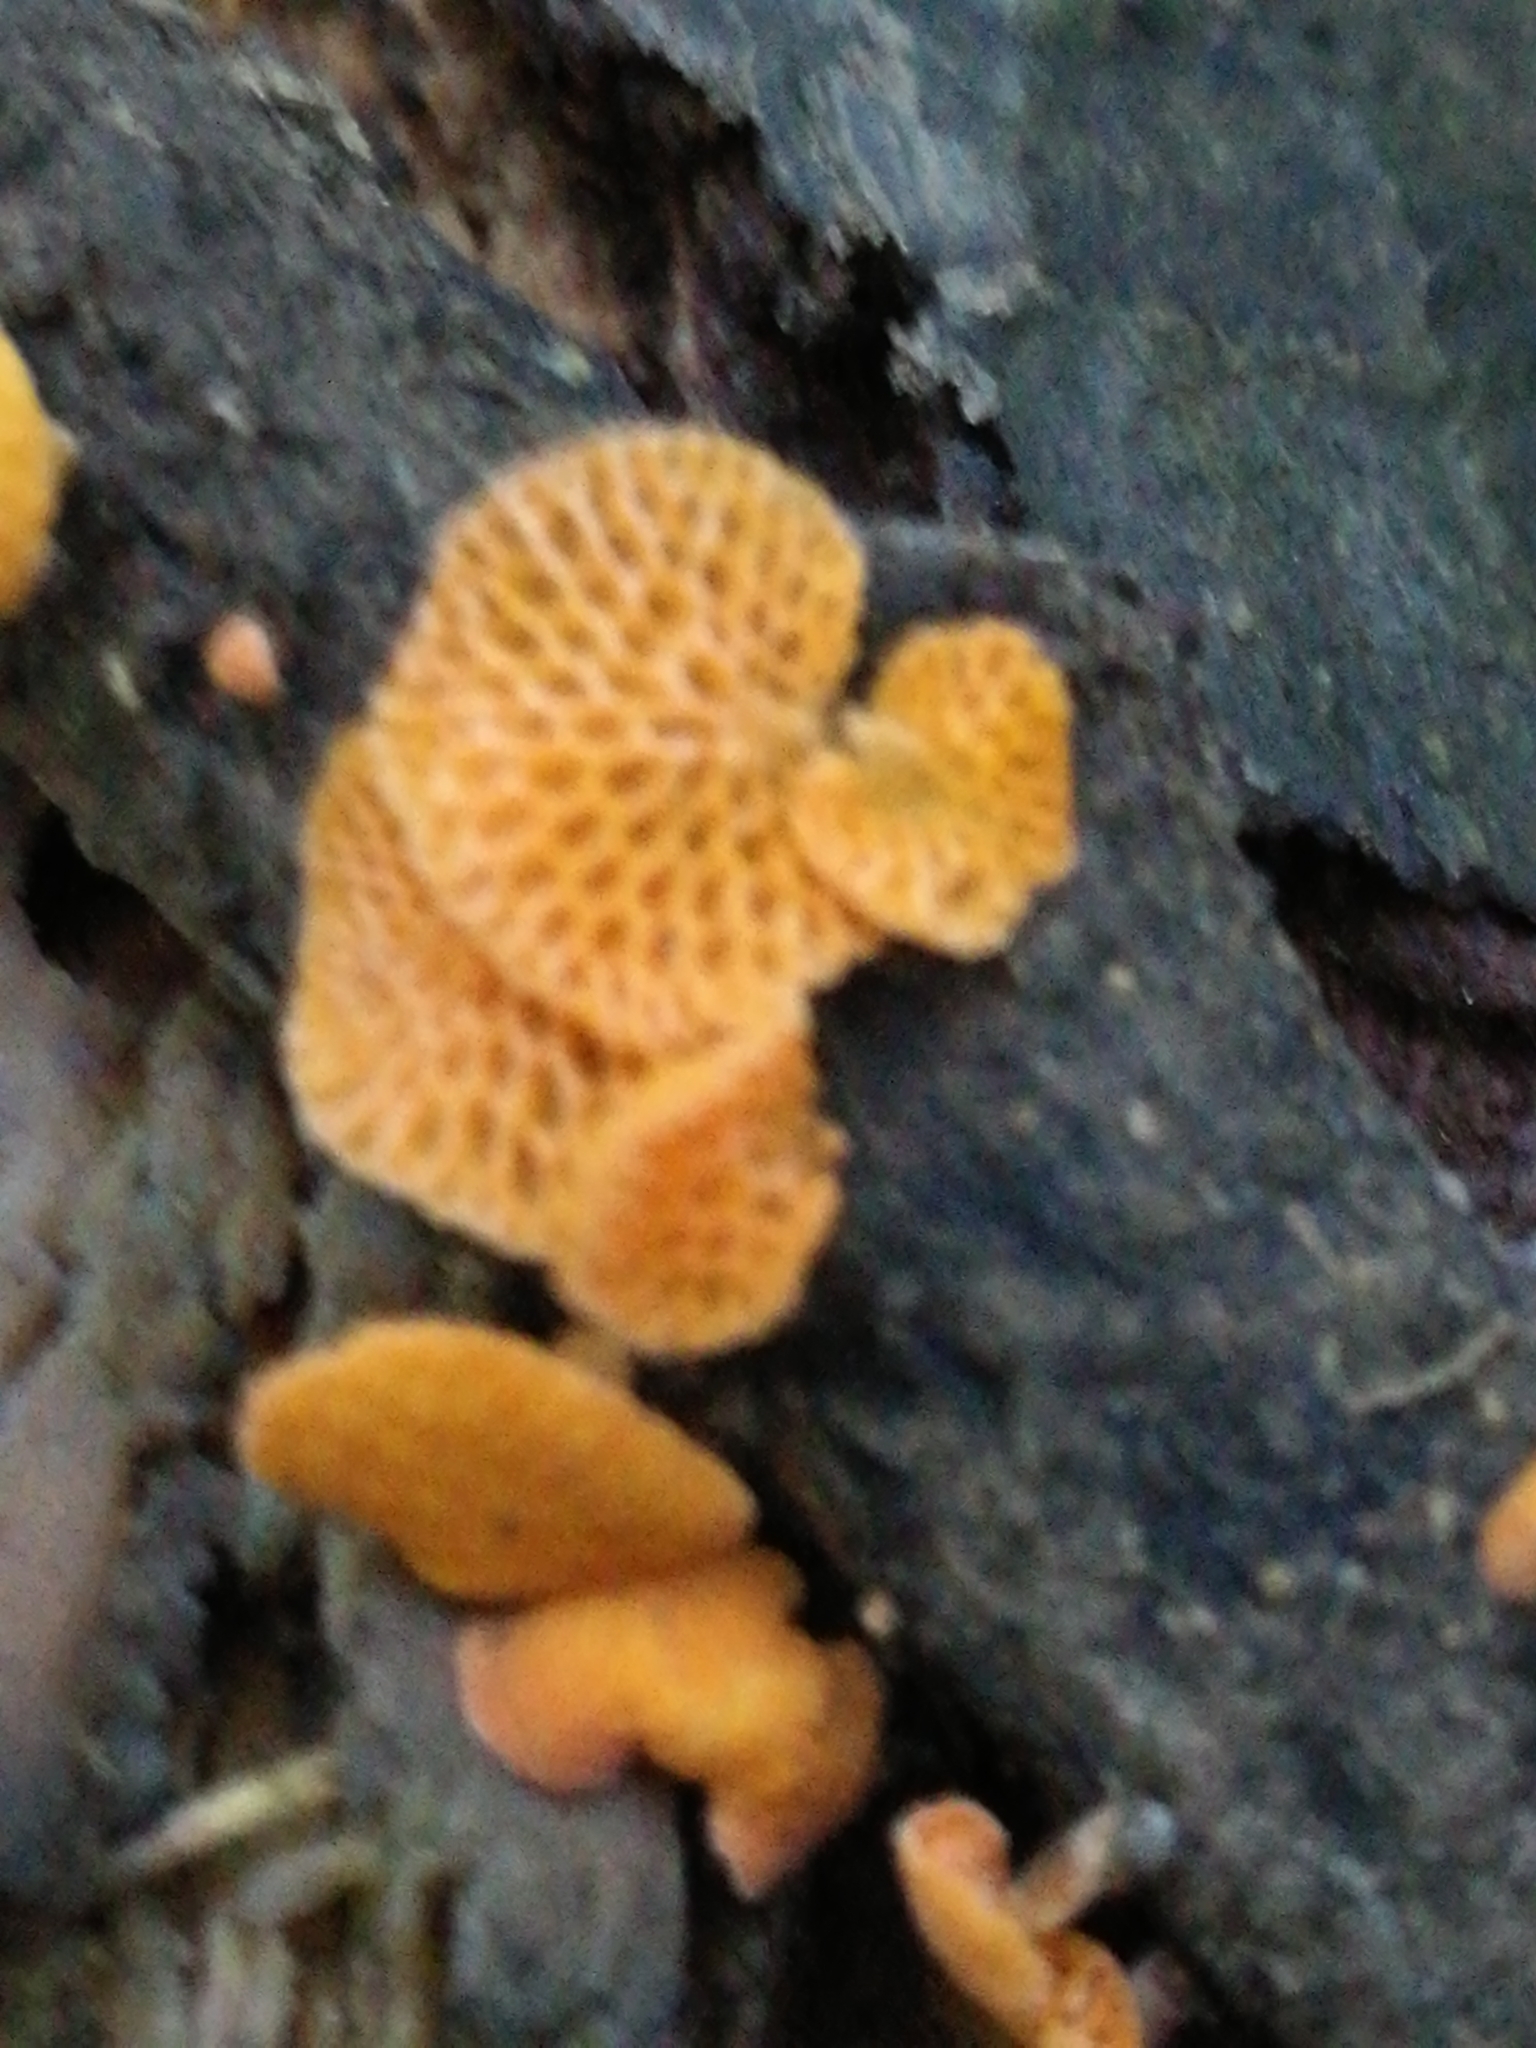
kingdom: Fungi
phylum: Basidiomycota
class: Agaricomycetes
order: Agaricales
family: Mycenaceae
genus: Favolaschia
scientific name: Favolaschia claudopus
